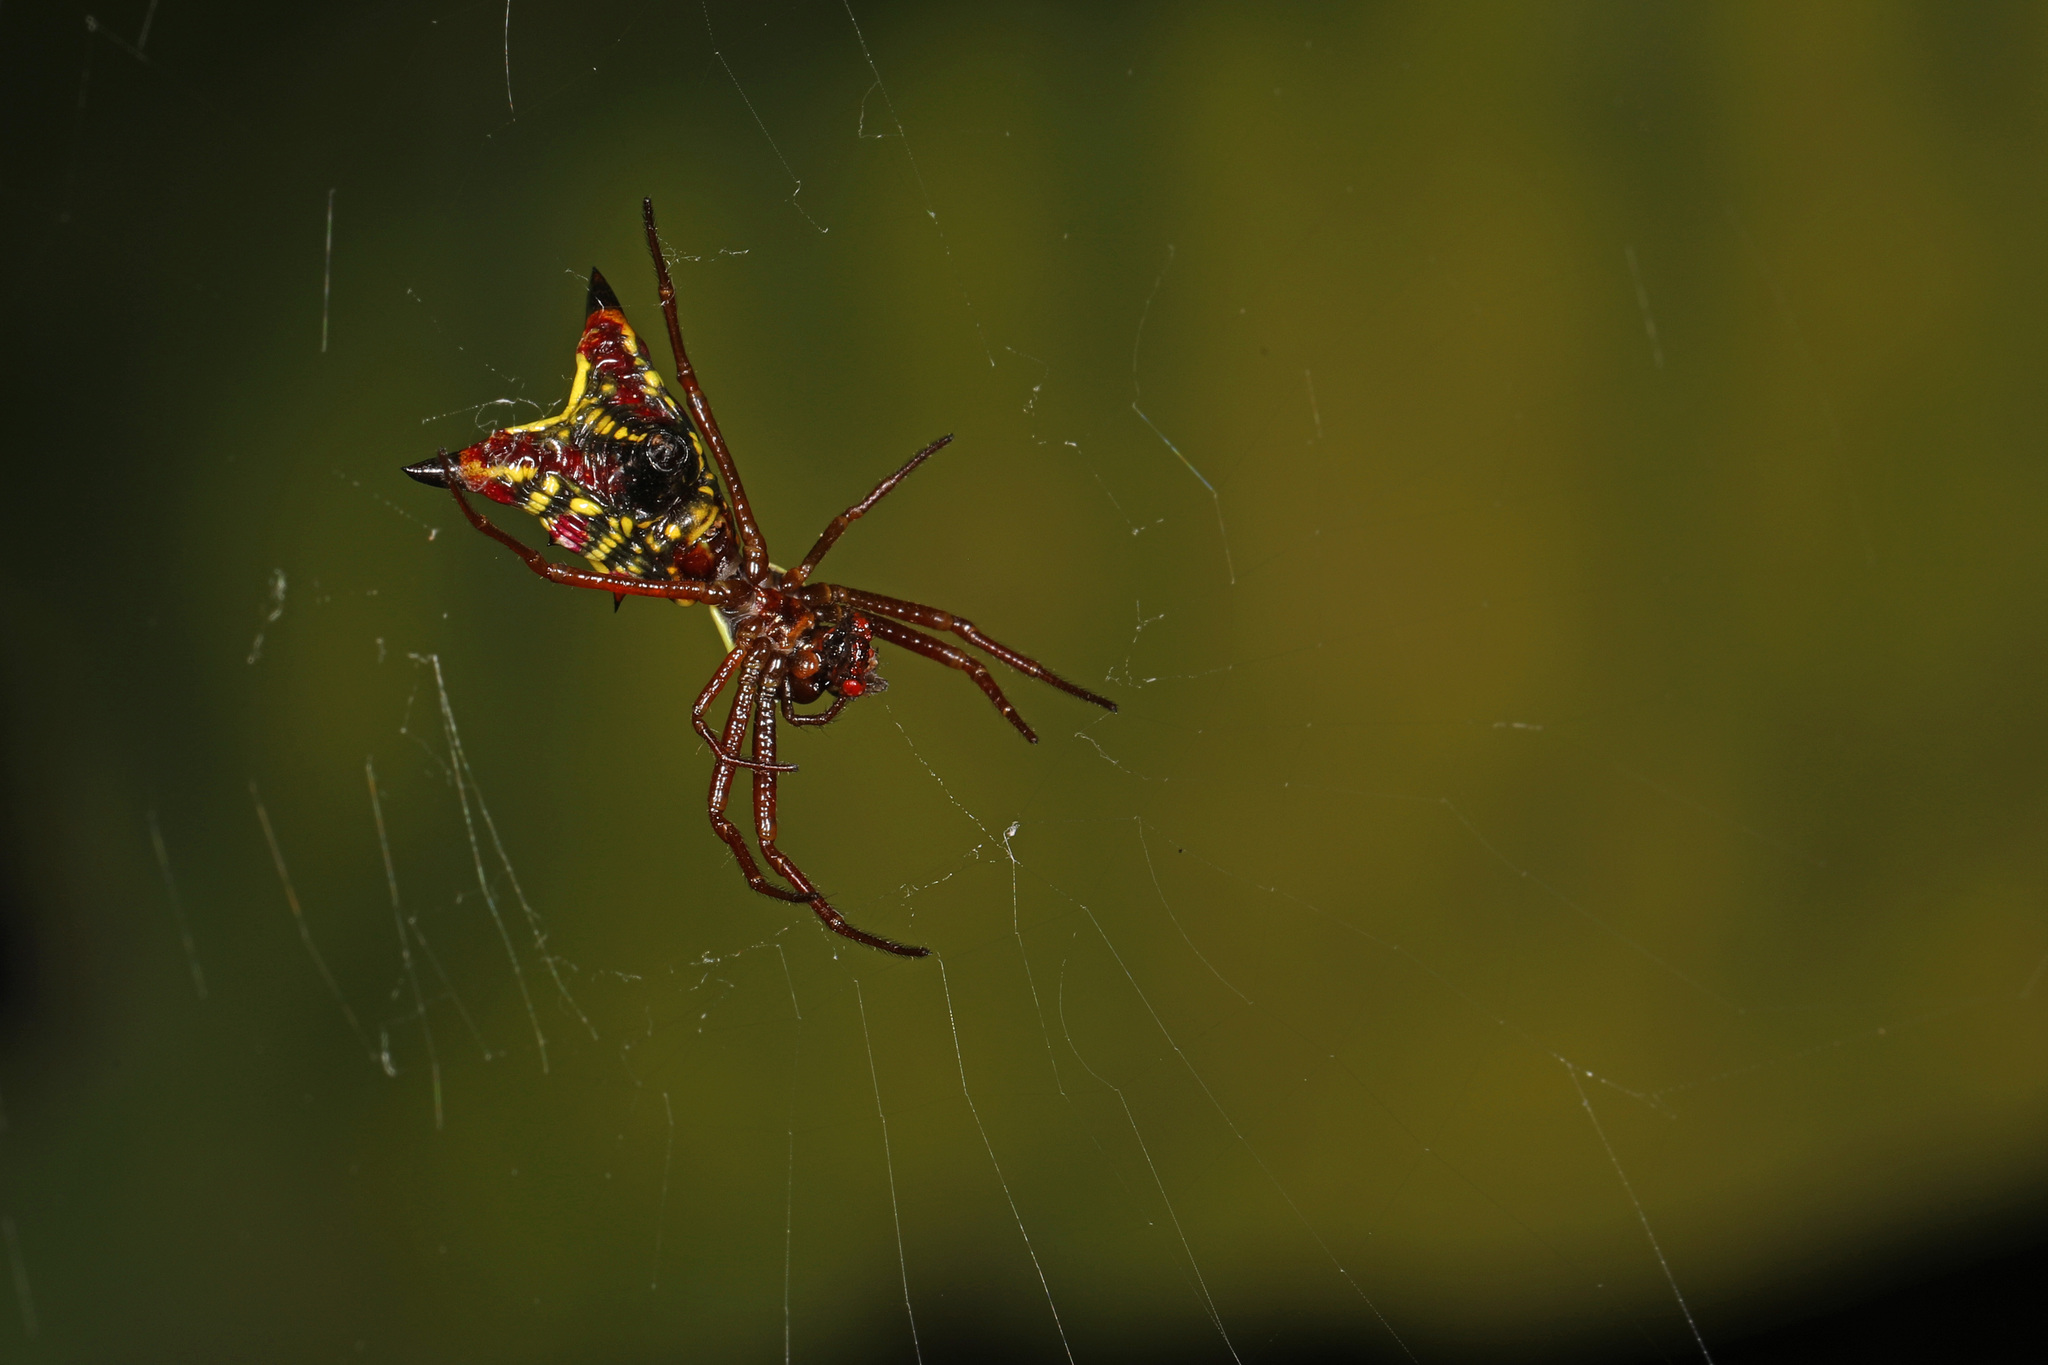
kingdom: Animalia
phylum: Arthropoda
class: Arachnida
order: Araneae
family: Araneidae
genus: Micrathena
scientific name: Micrathena sagittata
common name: Orb weavers
